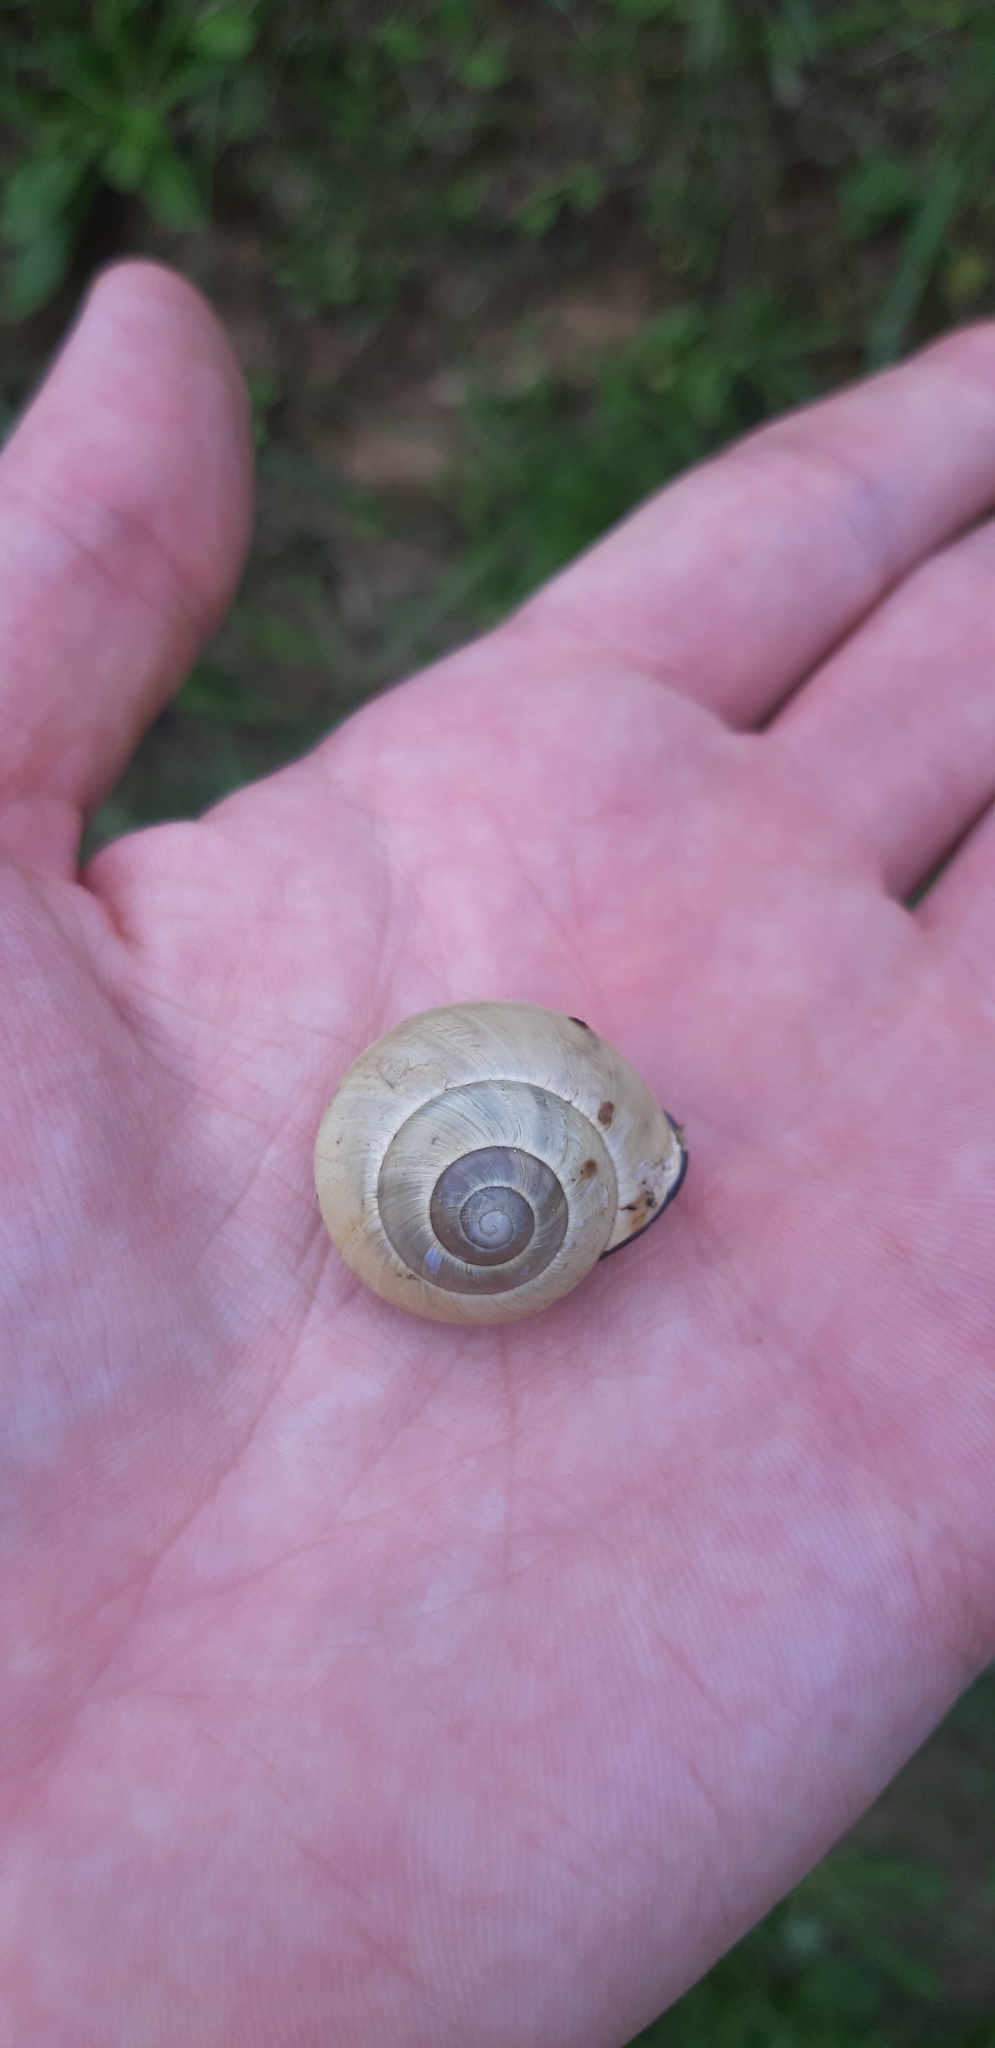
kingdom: Animalia
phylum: Mollusca
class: Gastropoda
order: Stylommatophora
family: Helicidae
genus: Cepaea
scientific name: Cepaea nemoralis
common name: Grovesnail
